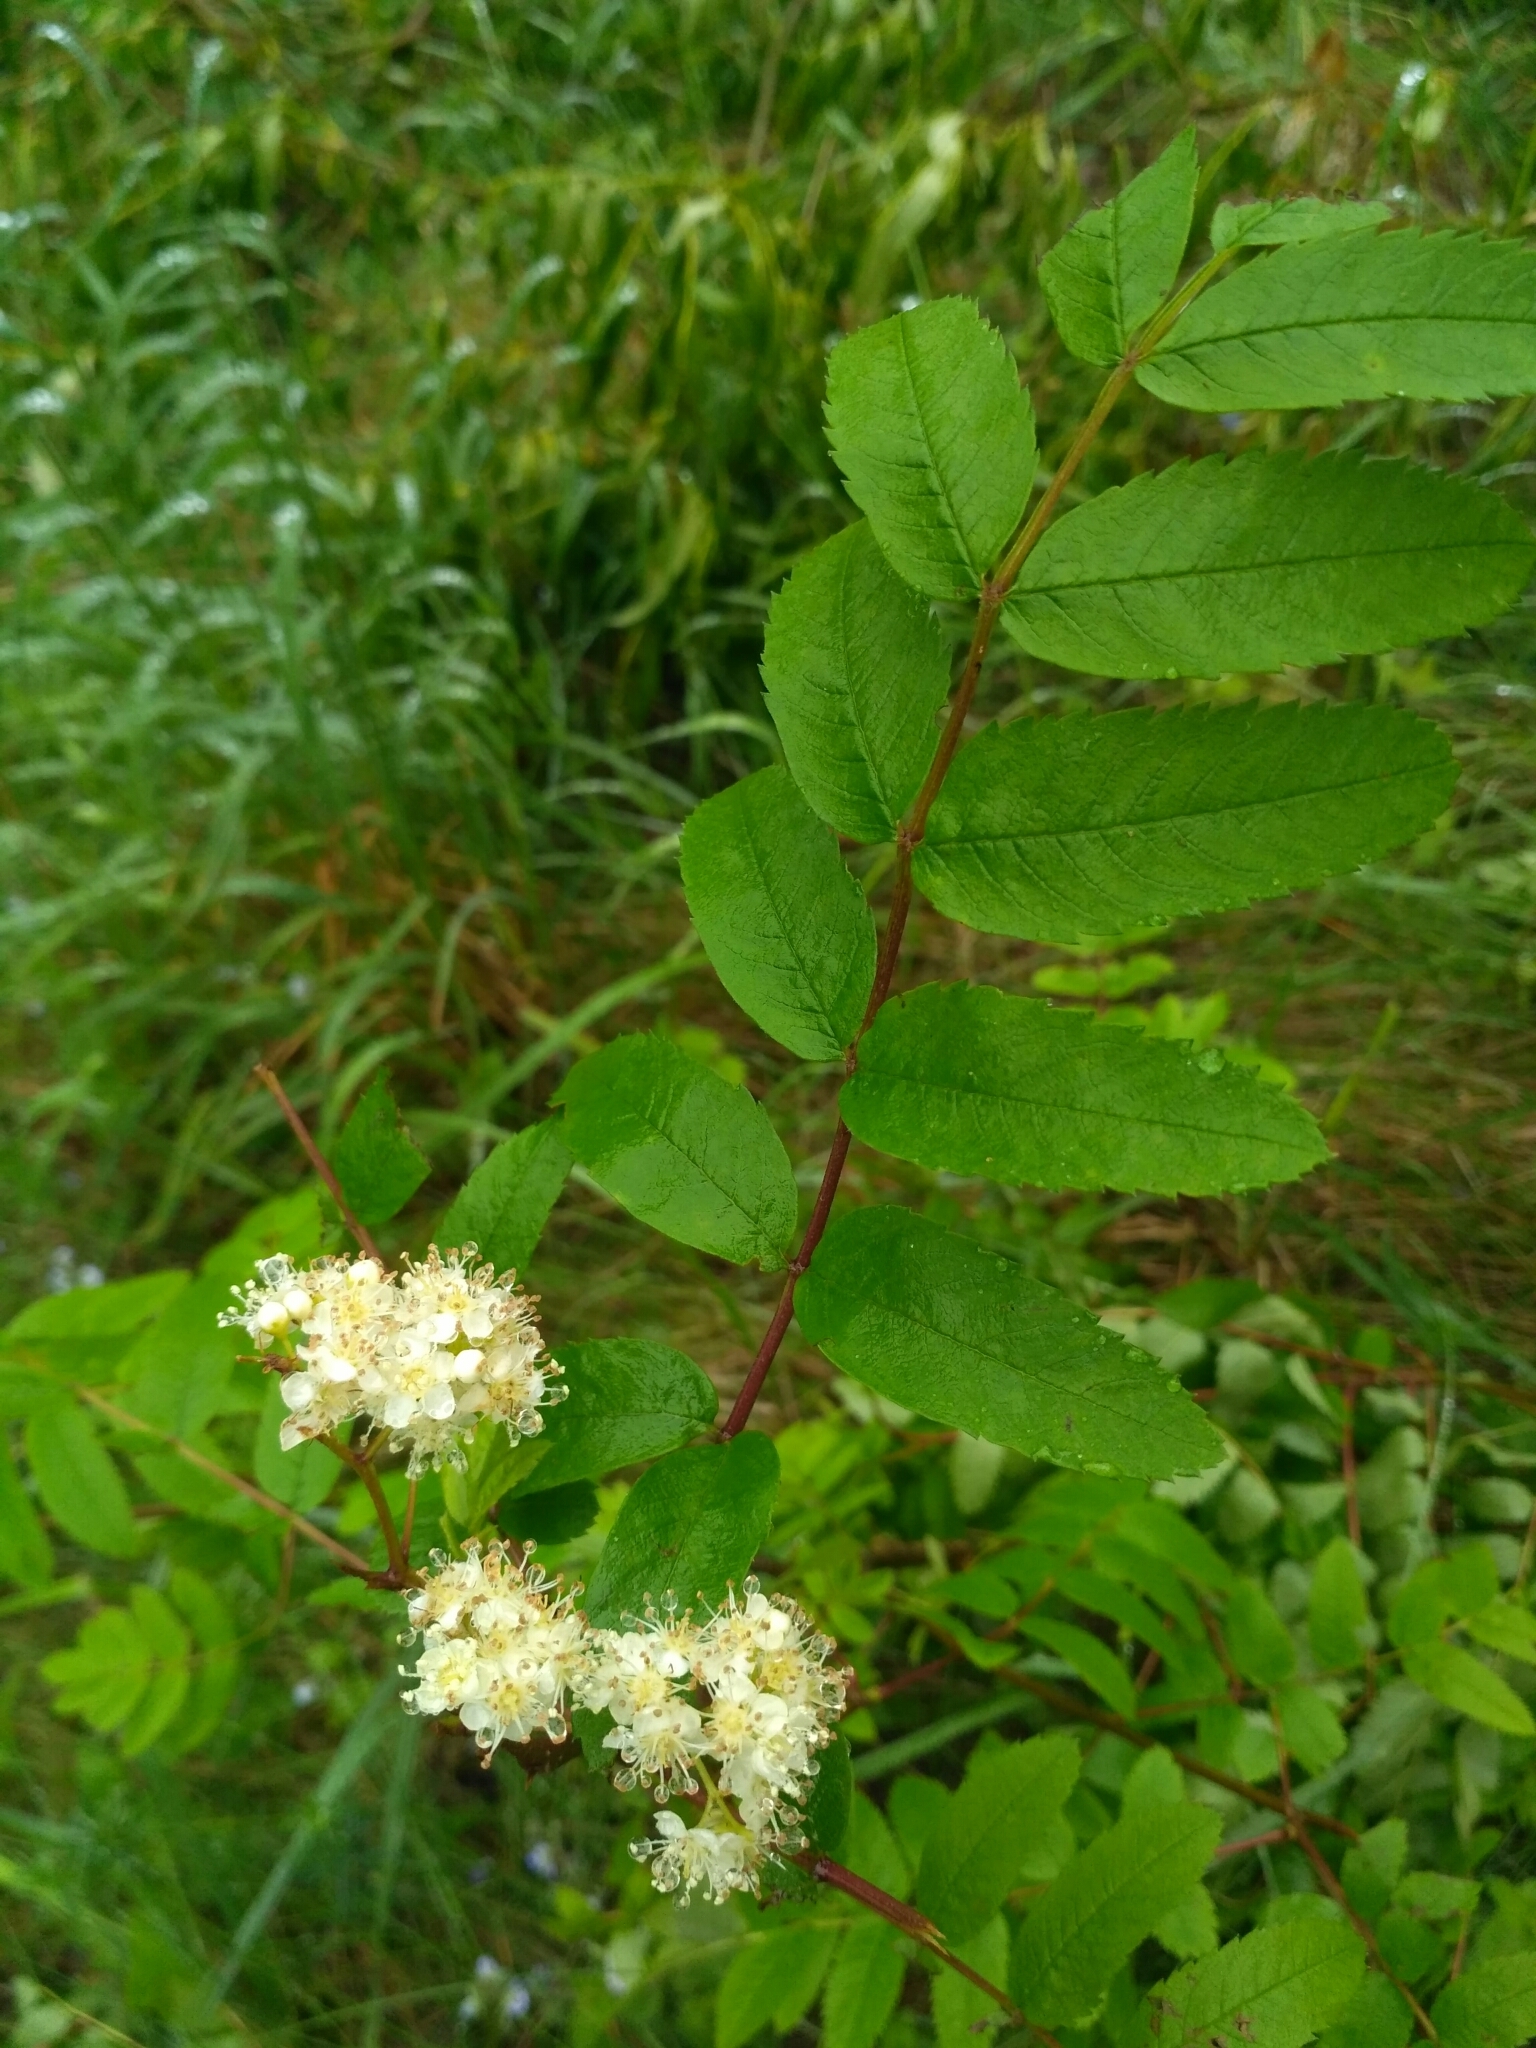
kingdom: Plantae
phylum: Tracheophyta
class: Magnoliopsida
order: Rosales
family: Rosaceae
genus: Sorbus
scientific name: Sorbus aucuparia
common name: Rowan
